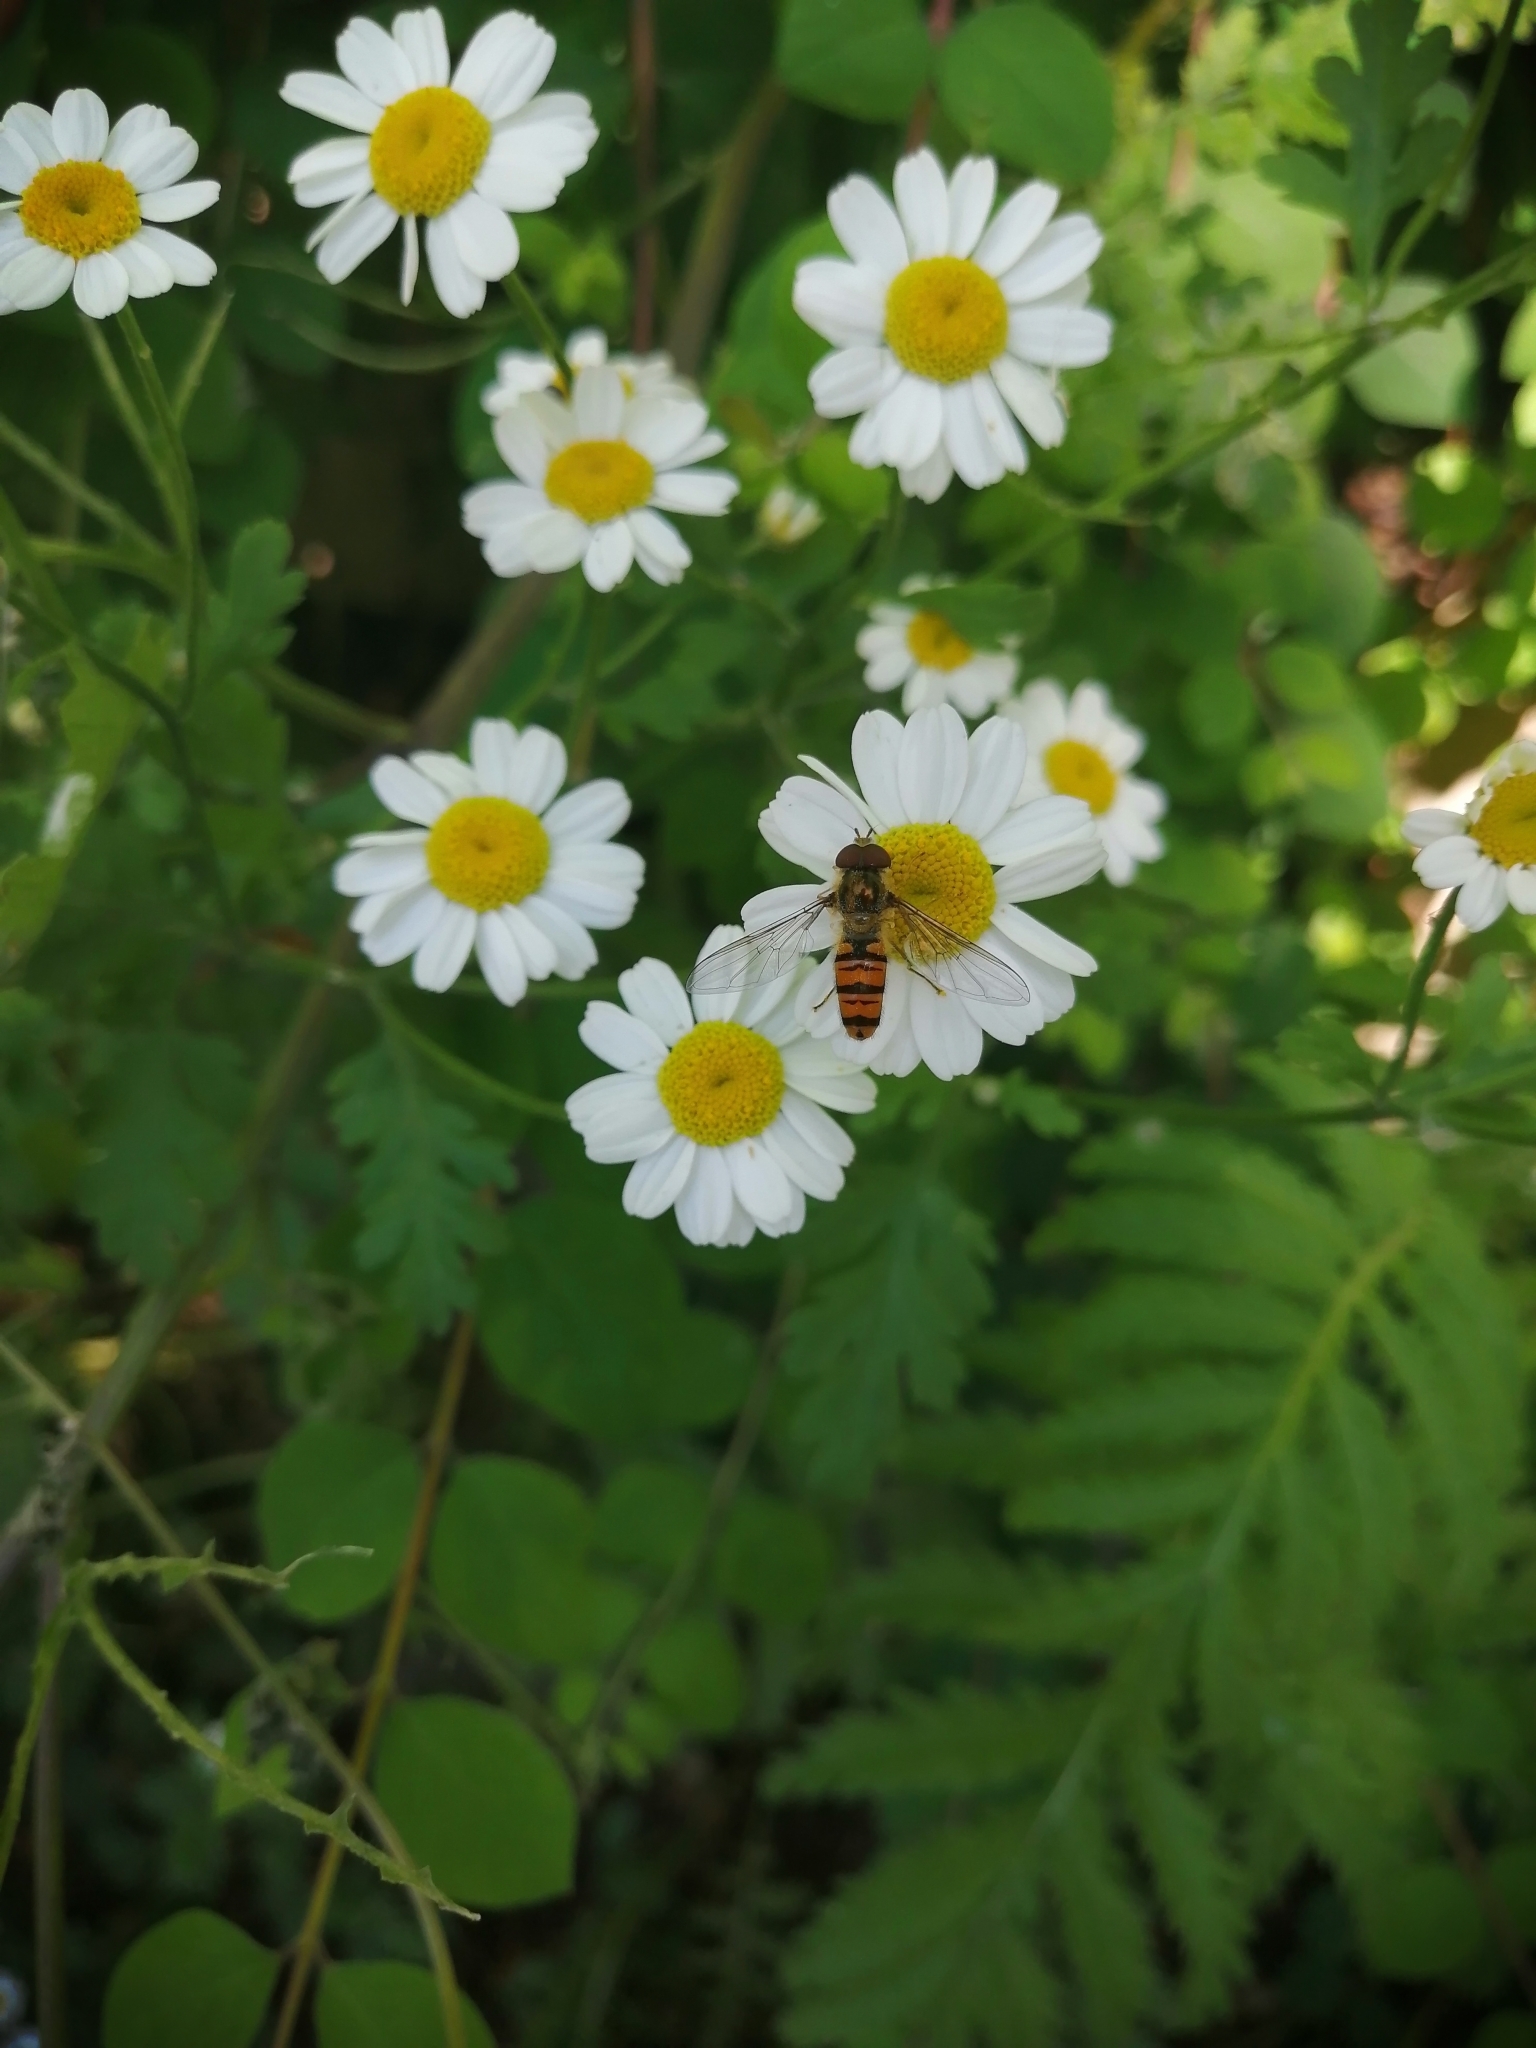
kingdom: Animalia
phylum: Arthropoda
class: Insecta
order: Diptera
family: Syrphidae
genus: Episyrphus
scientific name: Episyrphus balteatus
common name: Marmalade hoverfly
